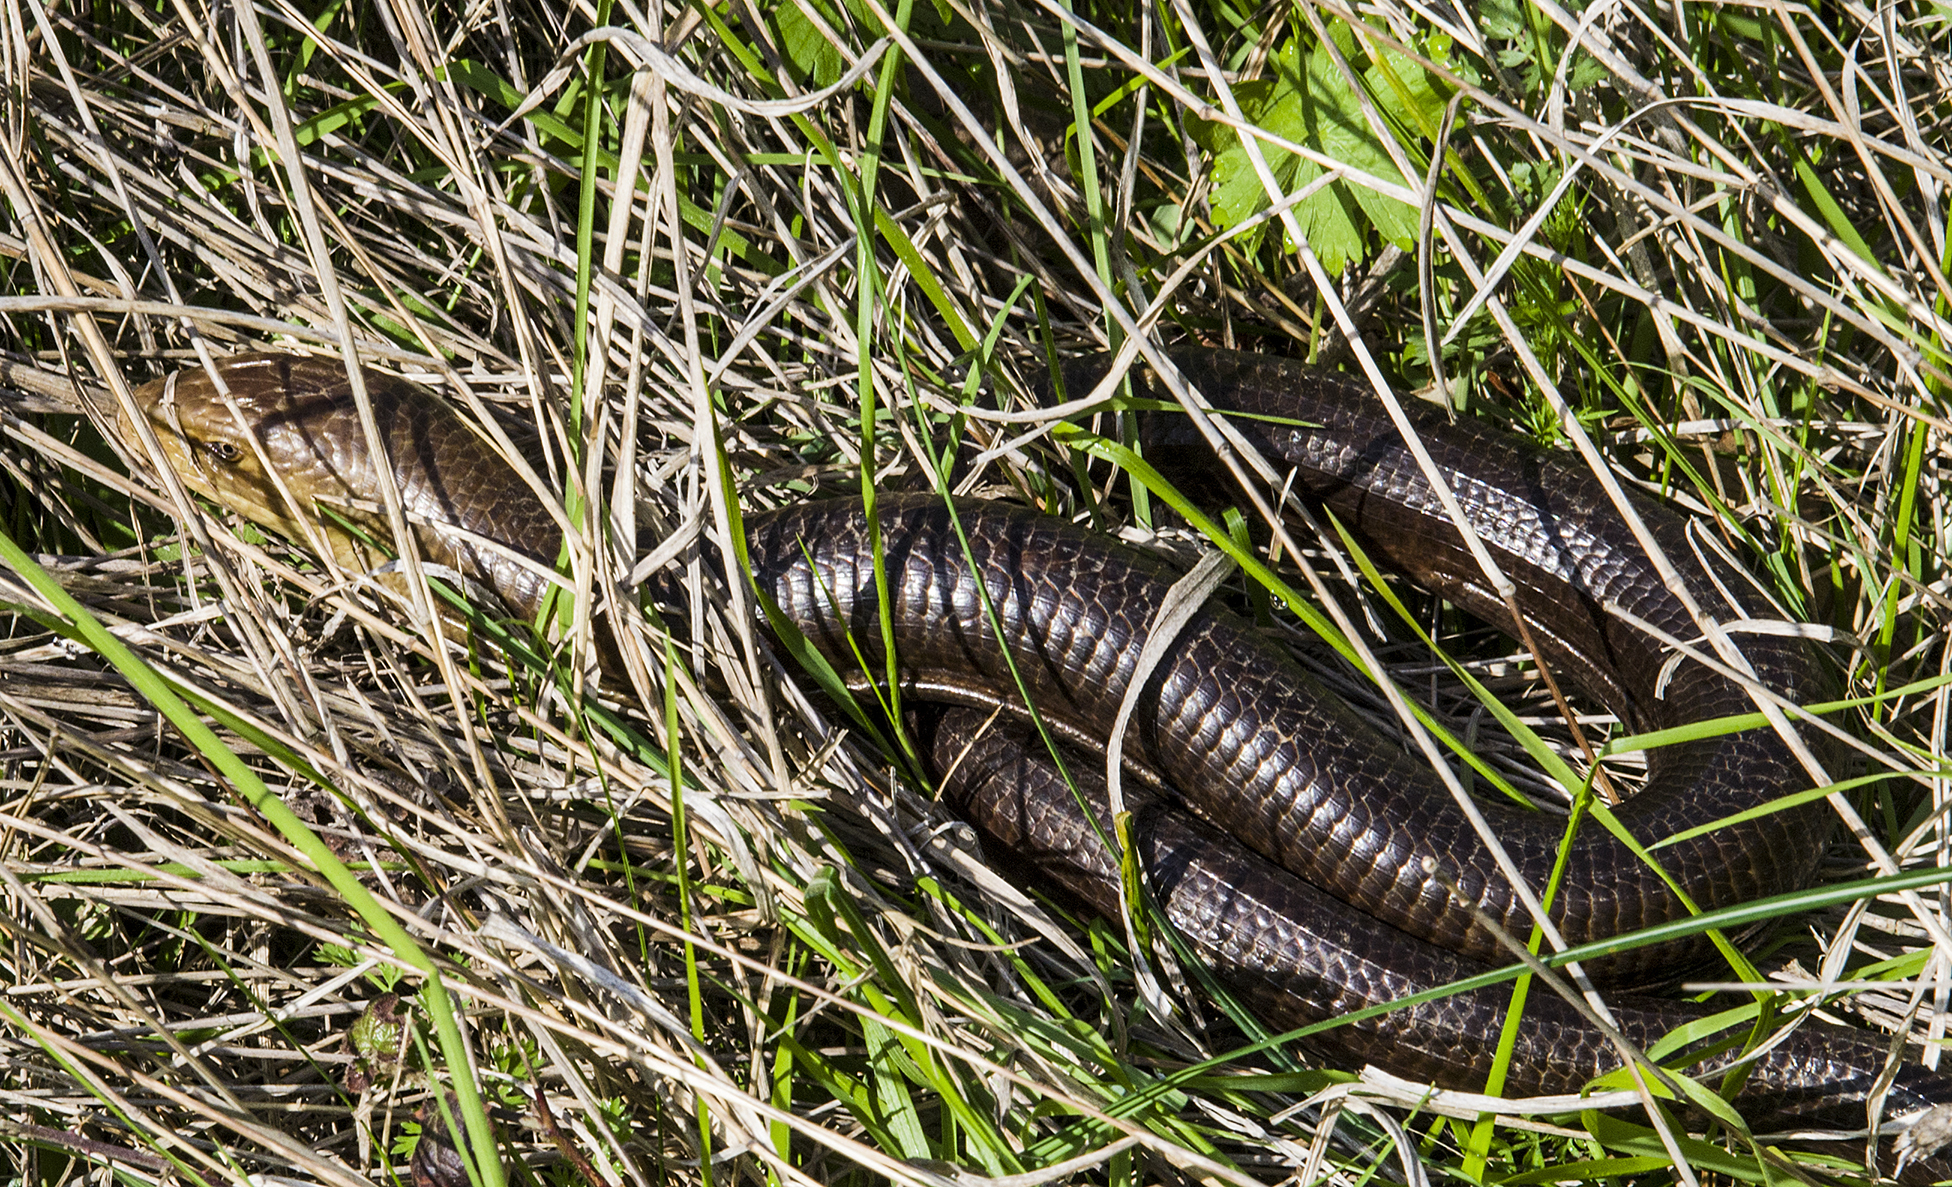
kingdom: Animalia
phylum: Chordata
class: Squamata
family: Anguidae
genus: Pseudopus
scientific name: Pseudopus apodus
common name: European glass lizard
